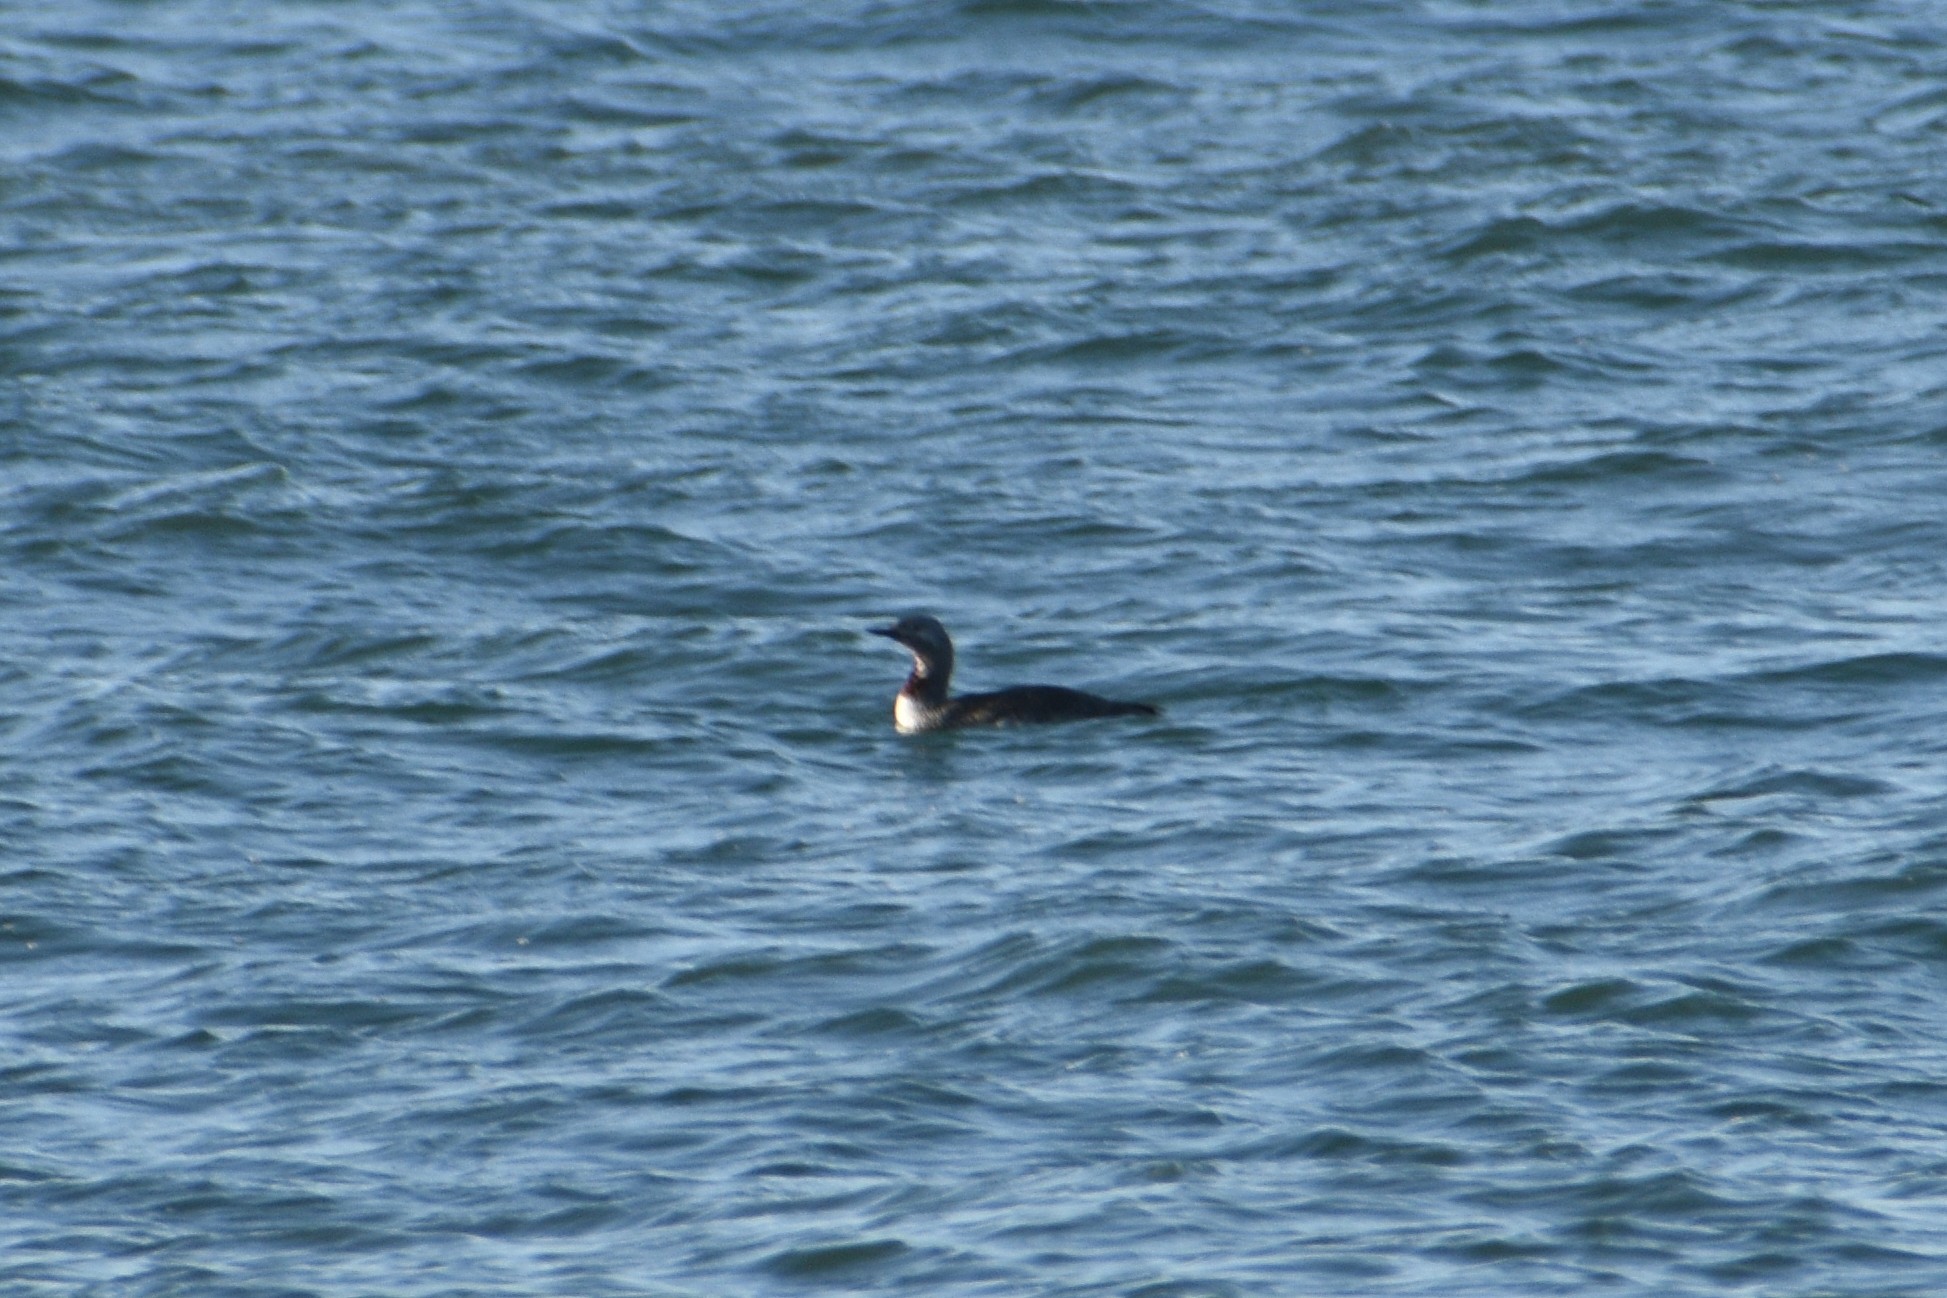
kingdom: Animalia
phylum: Chordata
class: Aves
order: Gaviiformes
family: Gaviidae
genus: Gavia
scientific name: Gavia stellata
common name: Red-throated loon
